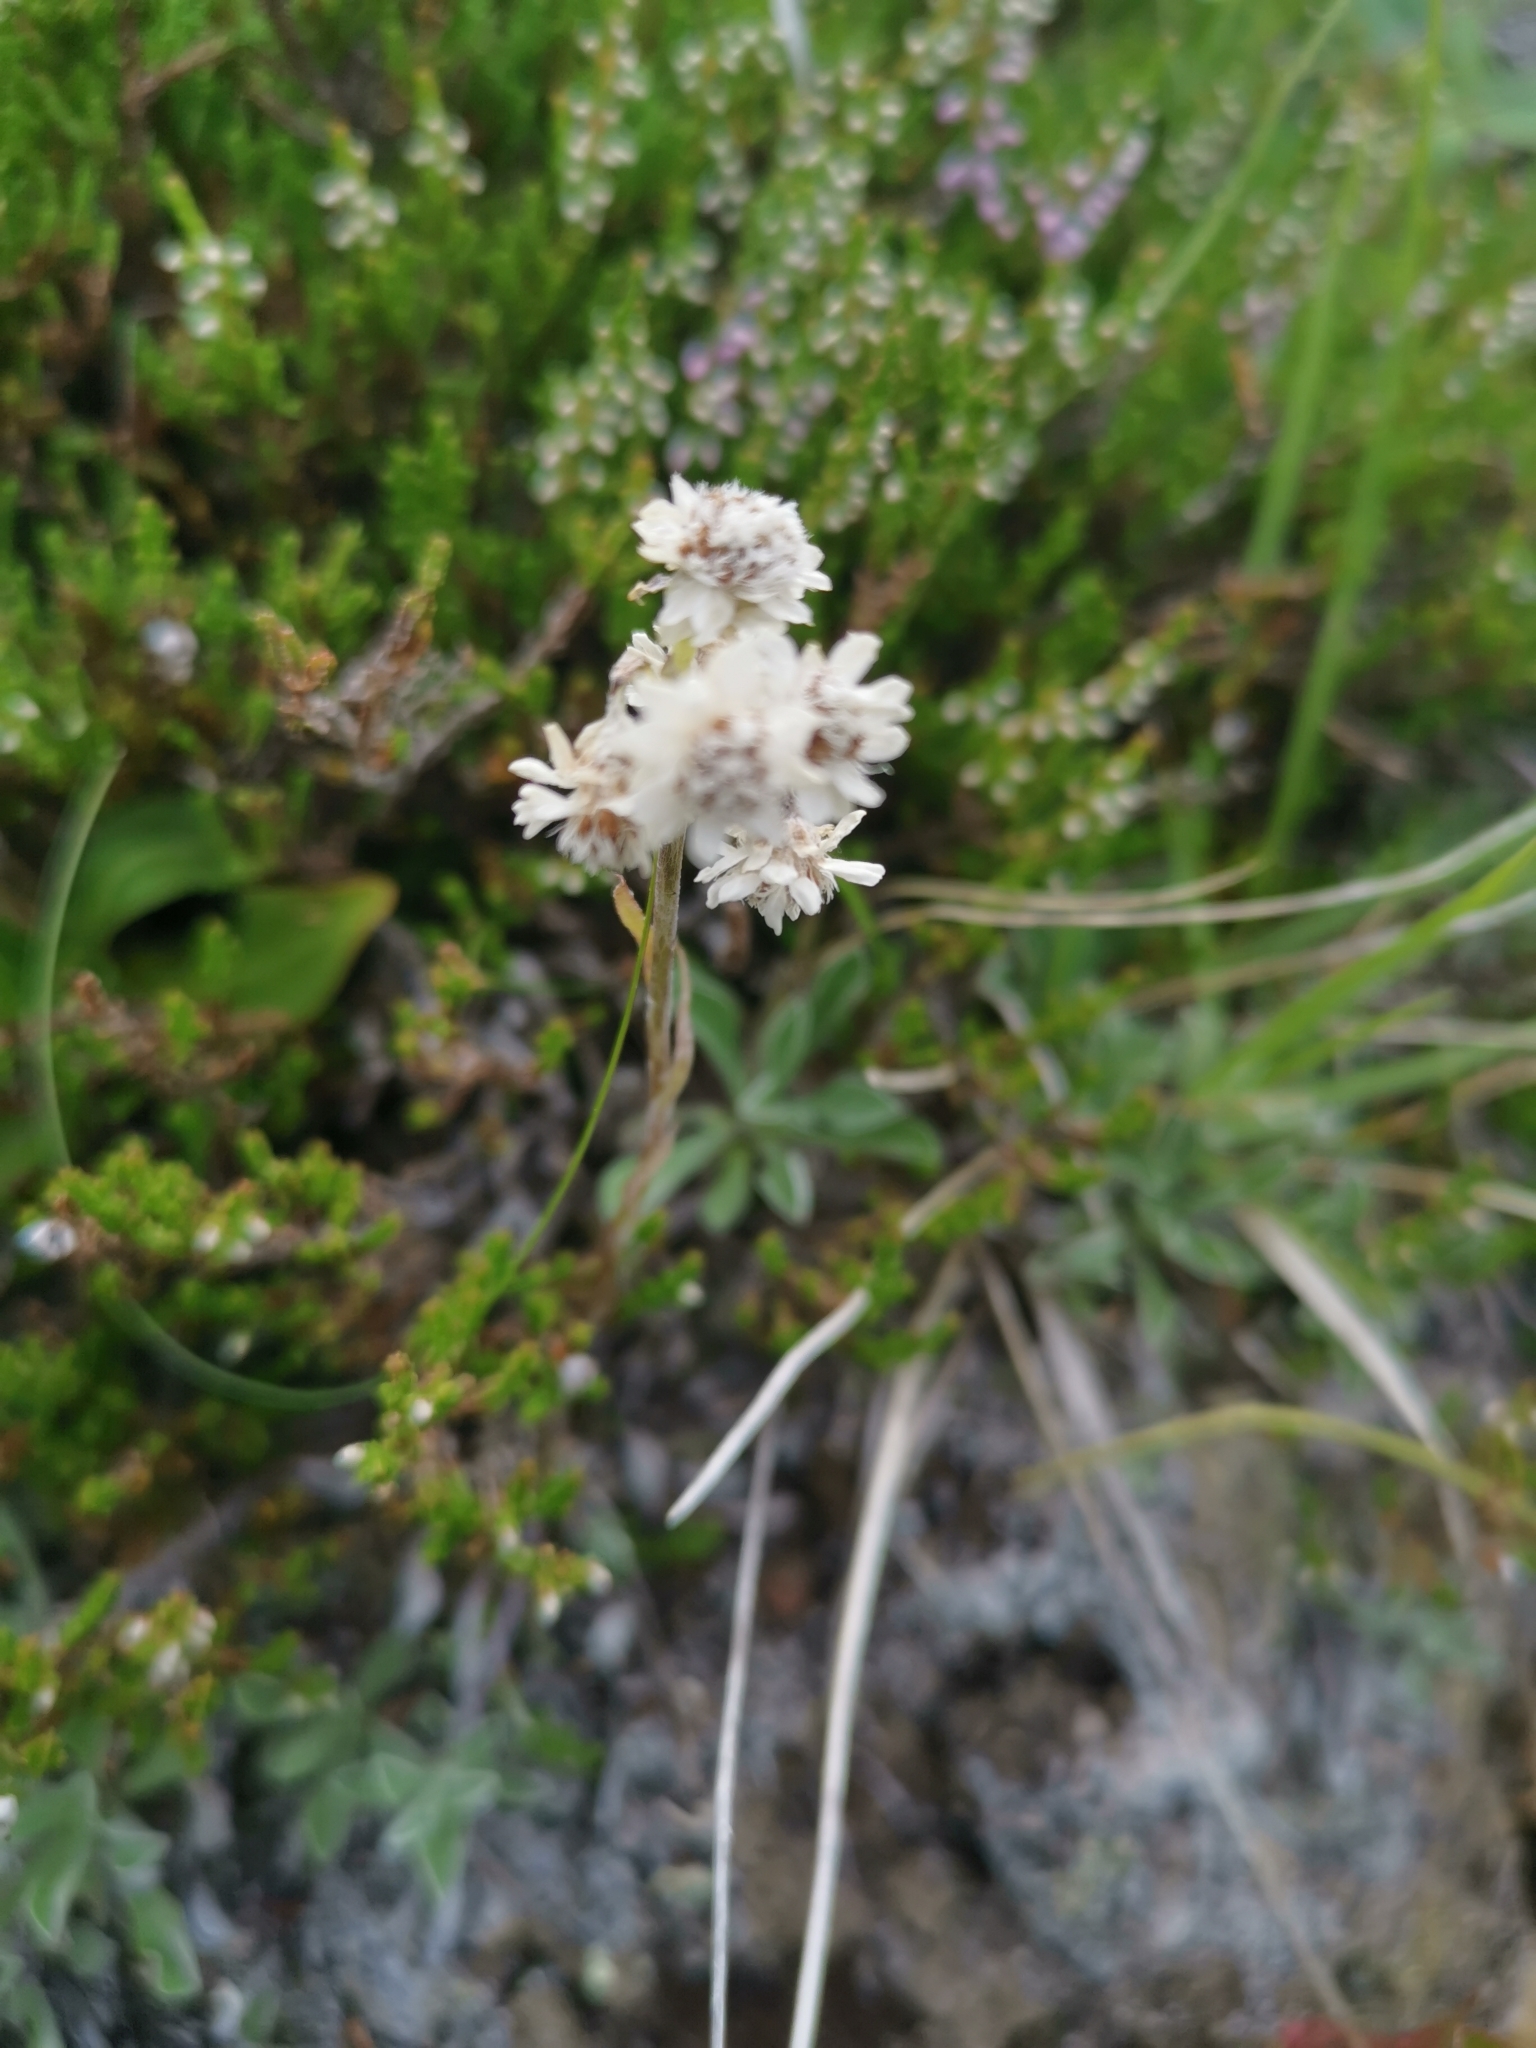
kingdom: Plantae
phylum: Tracheophyta
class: Magnoliopsida
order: Asterales
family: Asteraceae
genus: Antennaria
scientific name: Antennaria dioica
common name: Mountain everlasting
